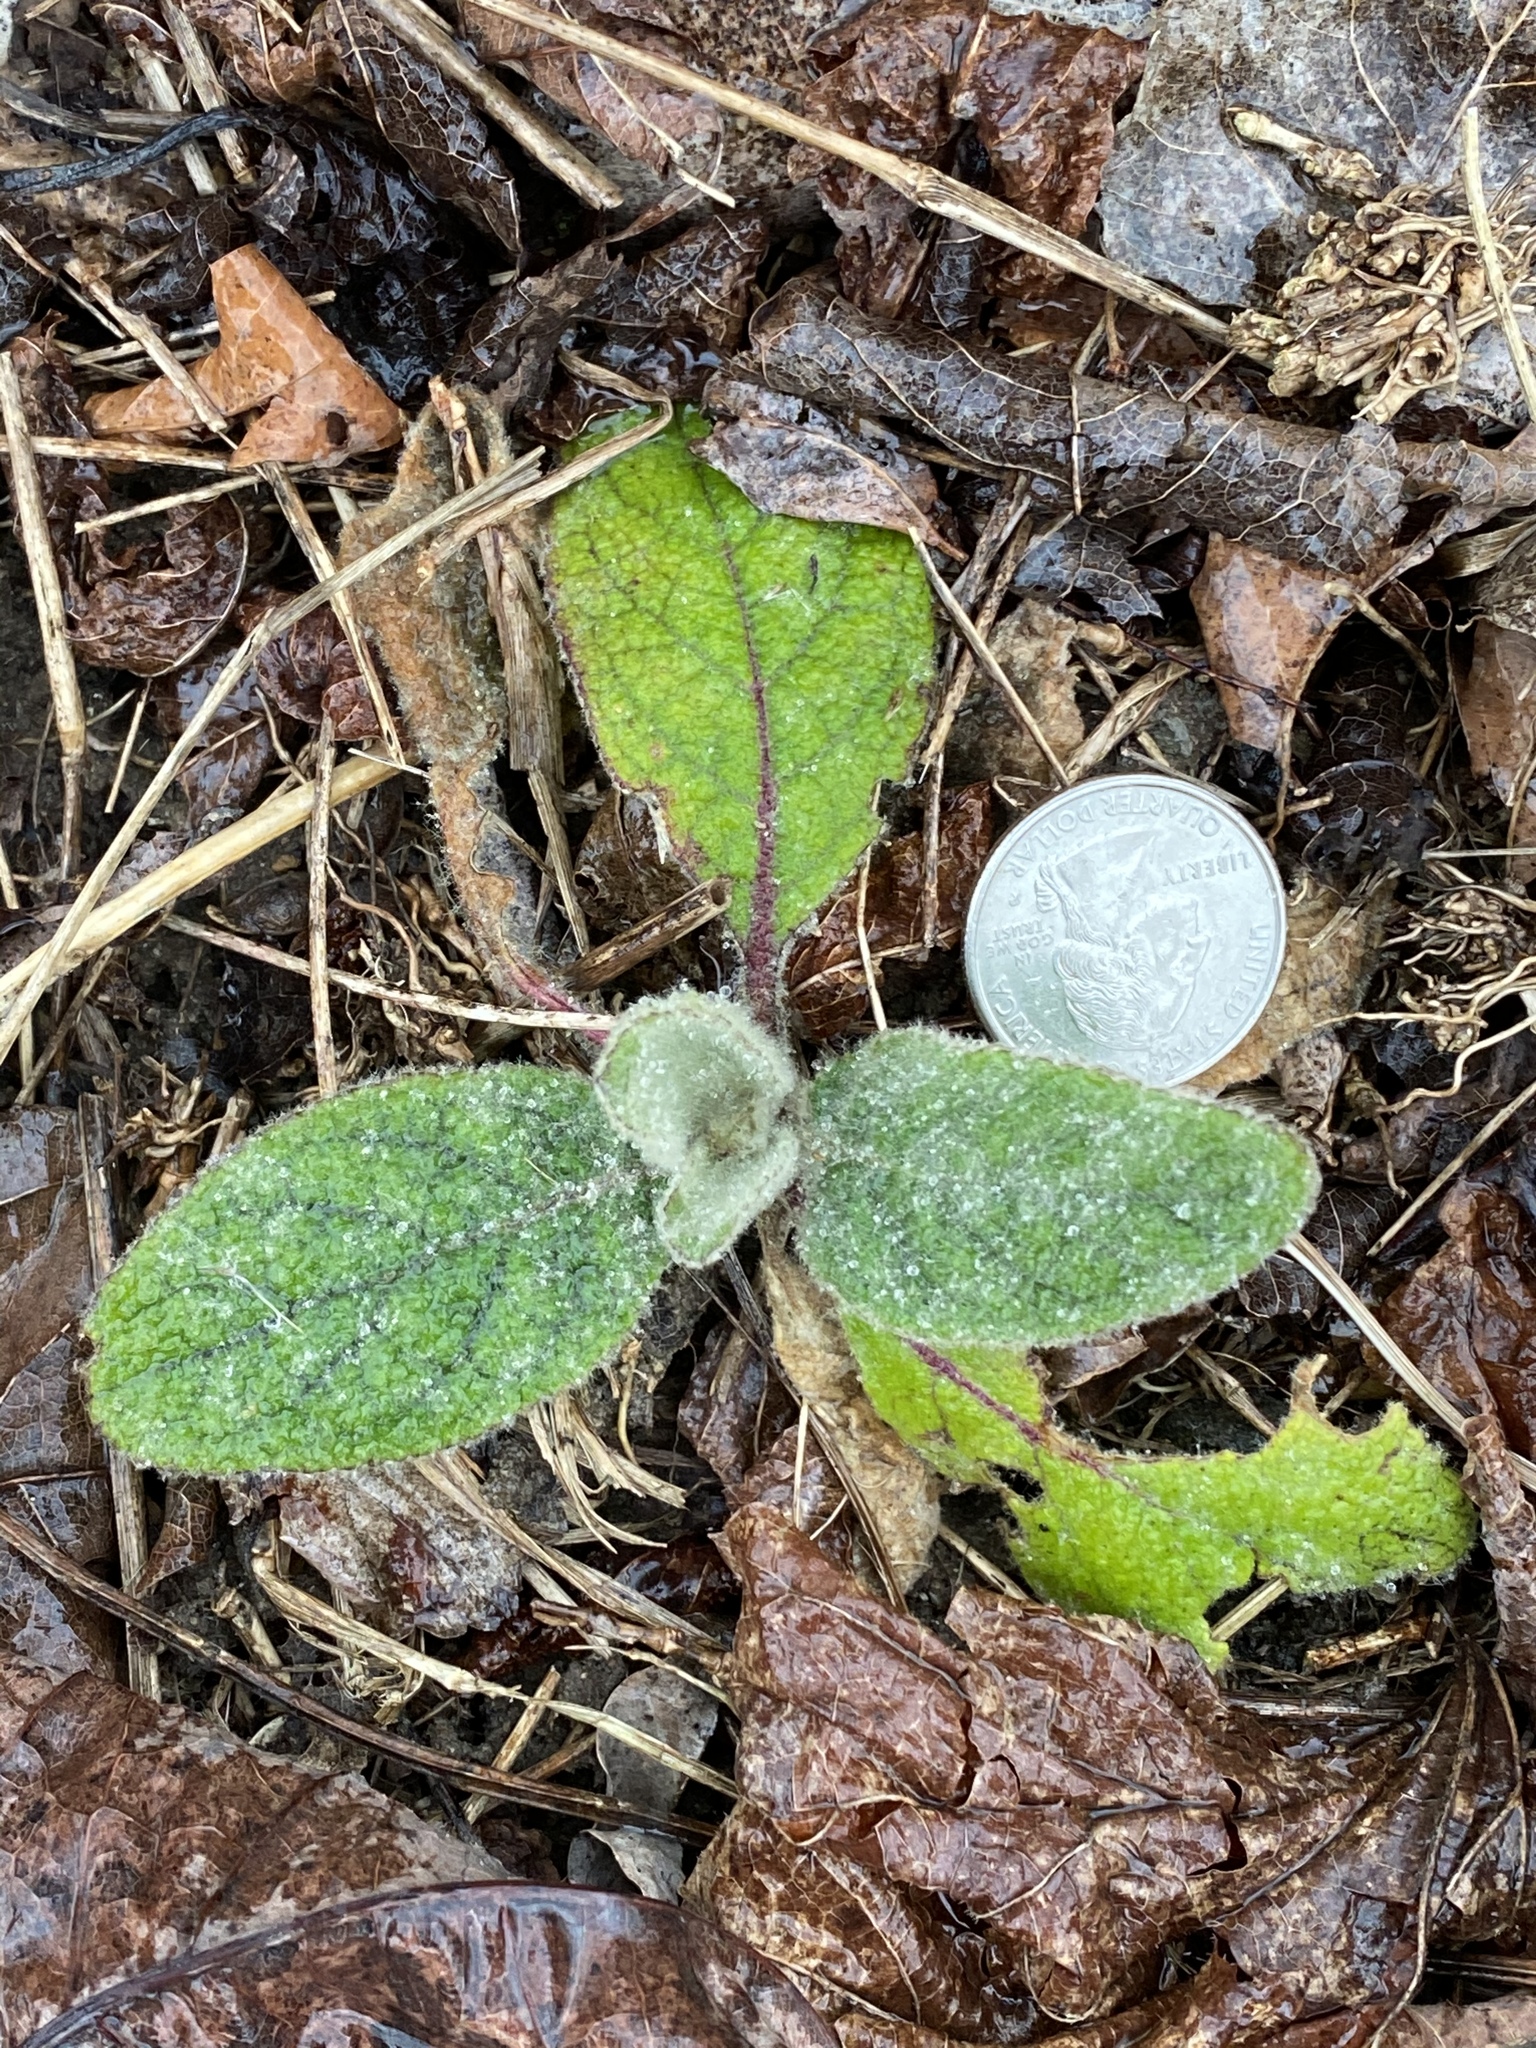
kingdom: Plantae
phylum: Tracheophyta
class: Magnoliopsida
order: Lamiales
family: Scrophulariaceae
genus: Verbascum
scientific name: Verbascum thapsus
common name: Common mullein
